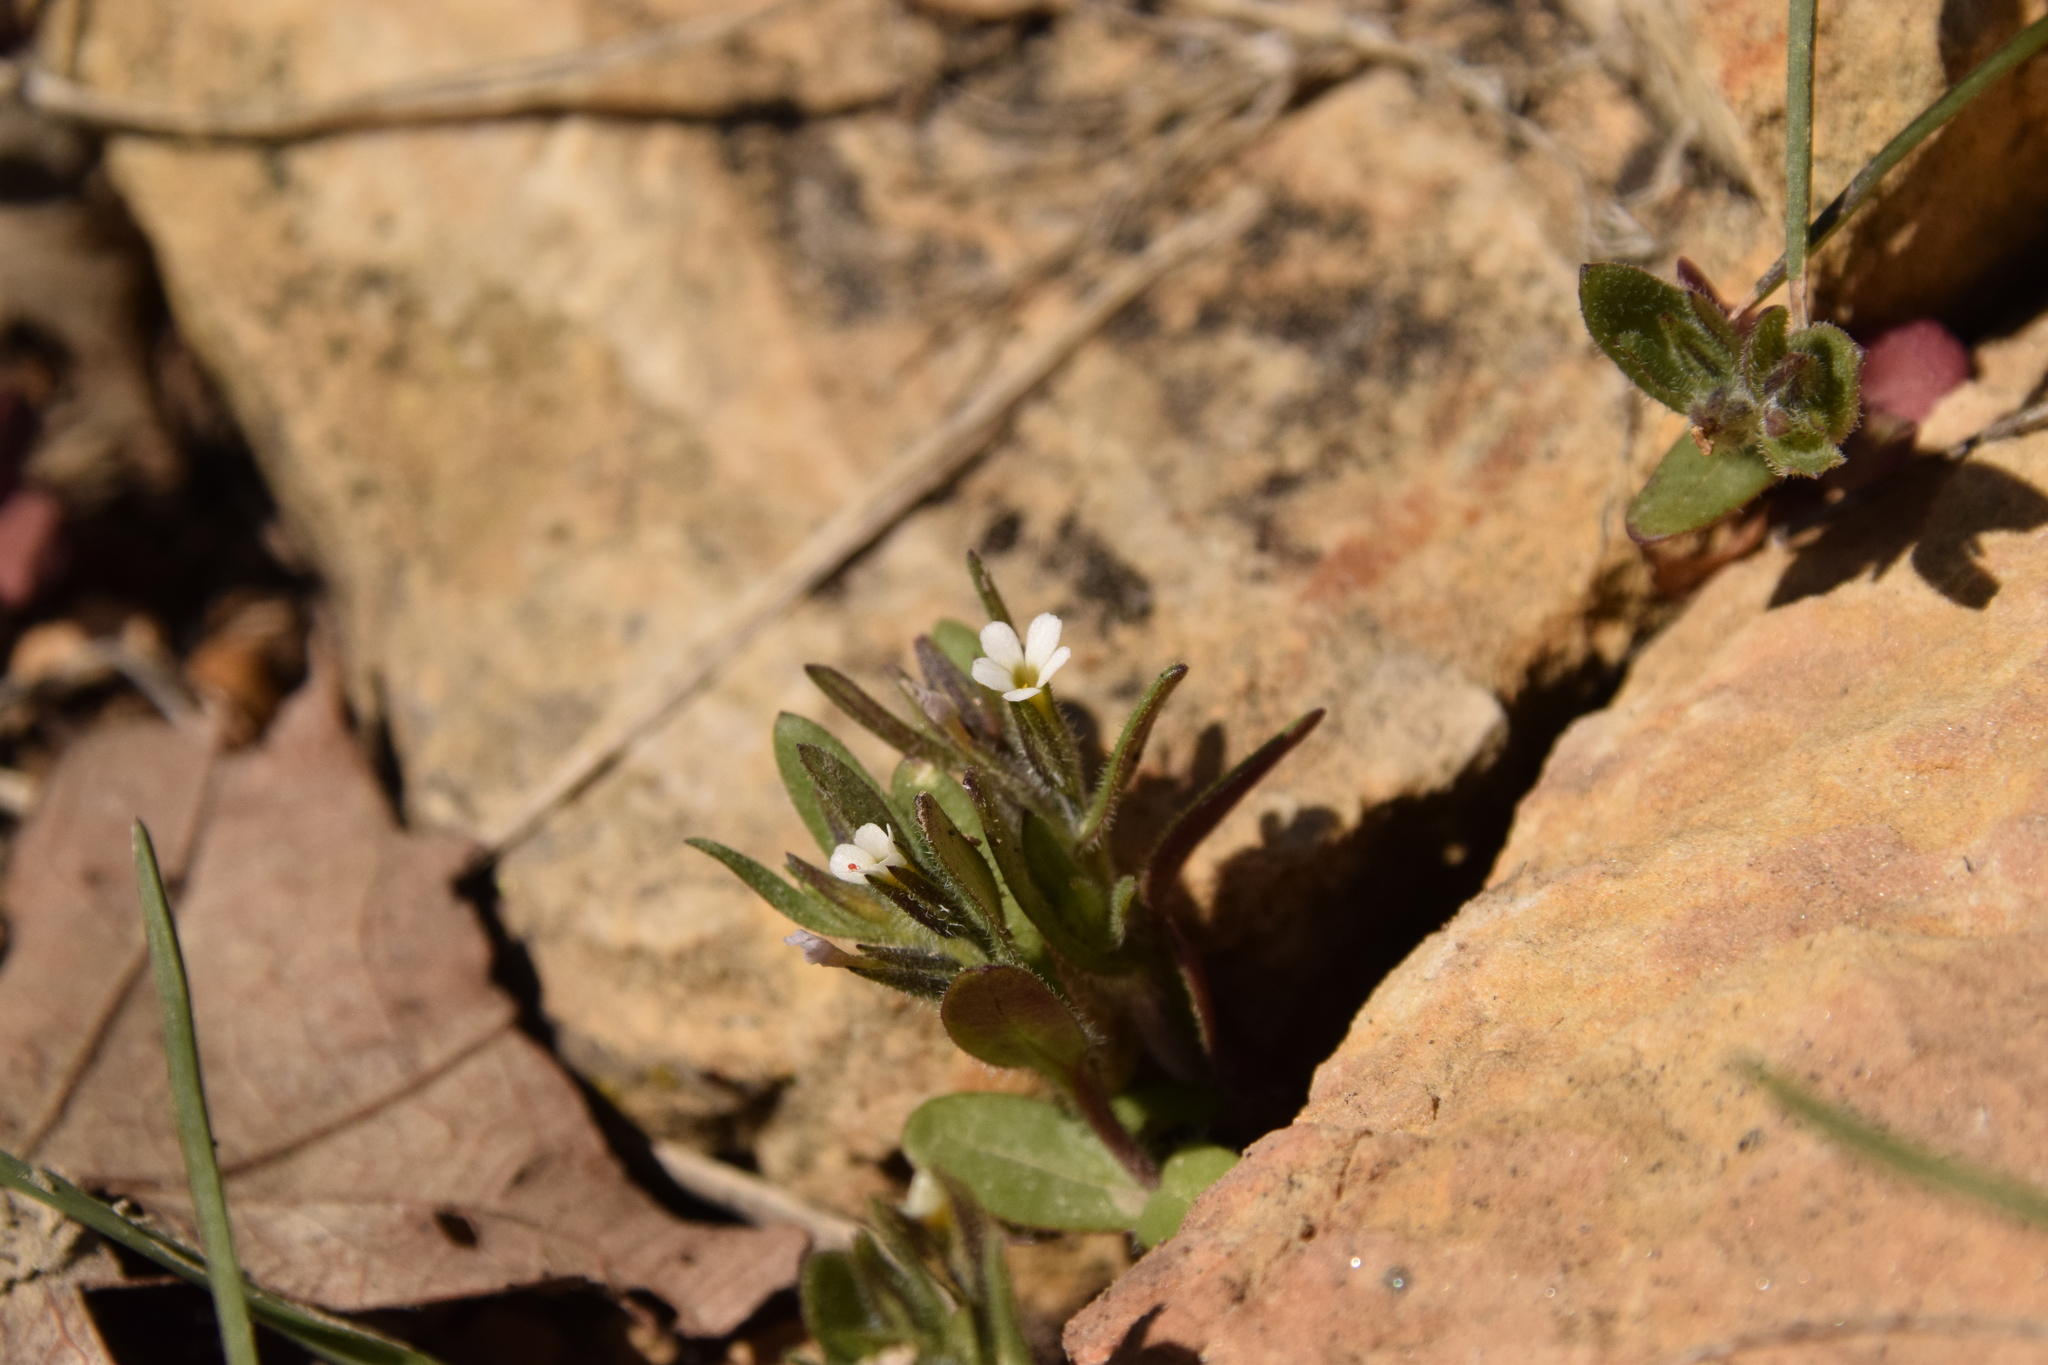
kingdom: Plantae
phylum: Tracheophyta
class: Magnoliopsida
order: Ericales
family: Polemoniaceae
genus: Phlox
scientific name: Phlox gracilis
